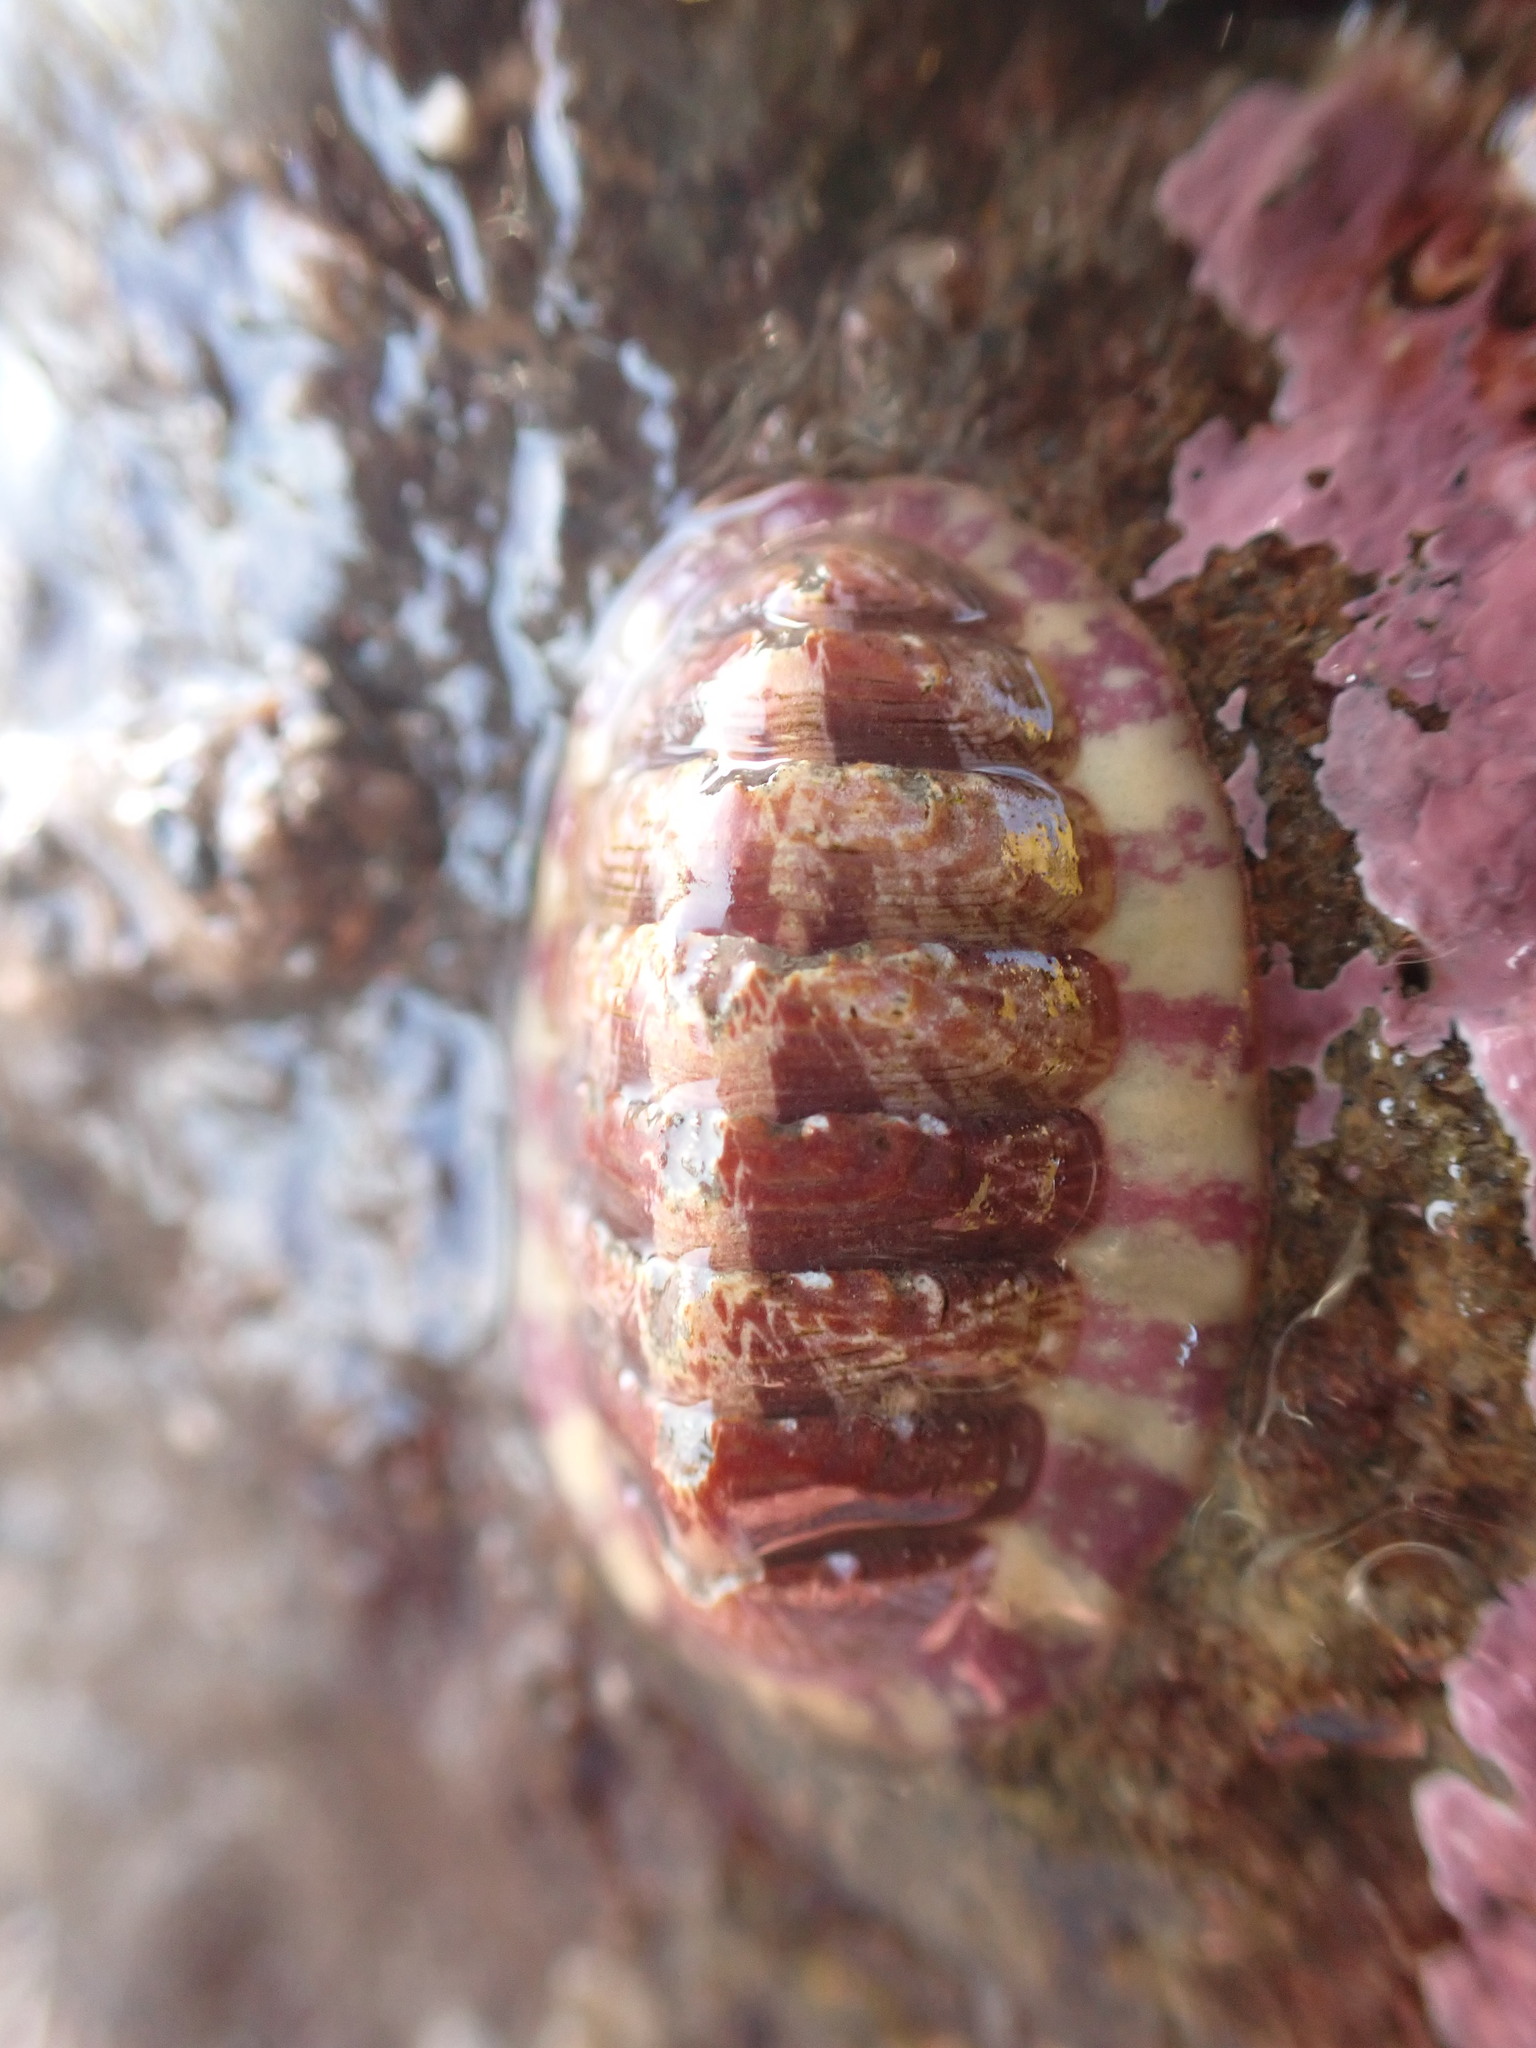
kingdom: Animalia
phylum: Mollusca
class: Polyplacophora
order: Chitonida
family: Tonicellidae
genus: Tonicella
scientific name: Tonicella marmorea
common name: Lined red chiton
